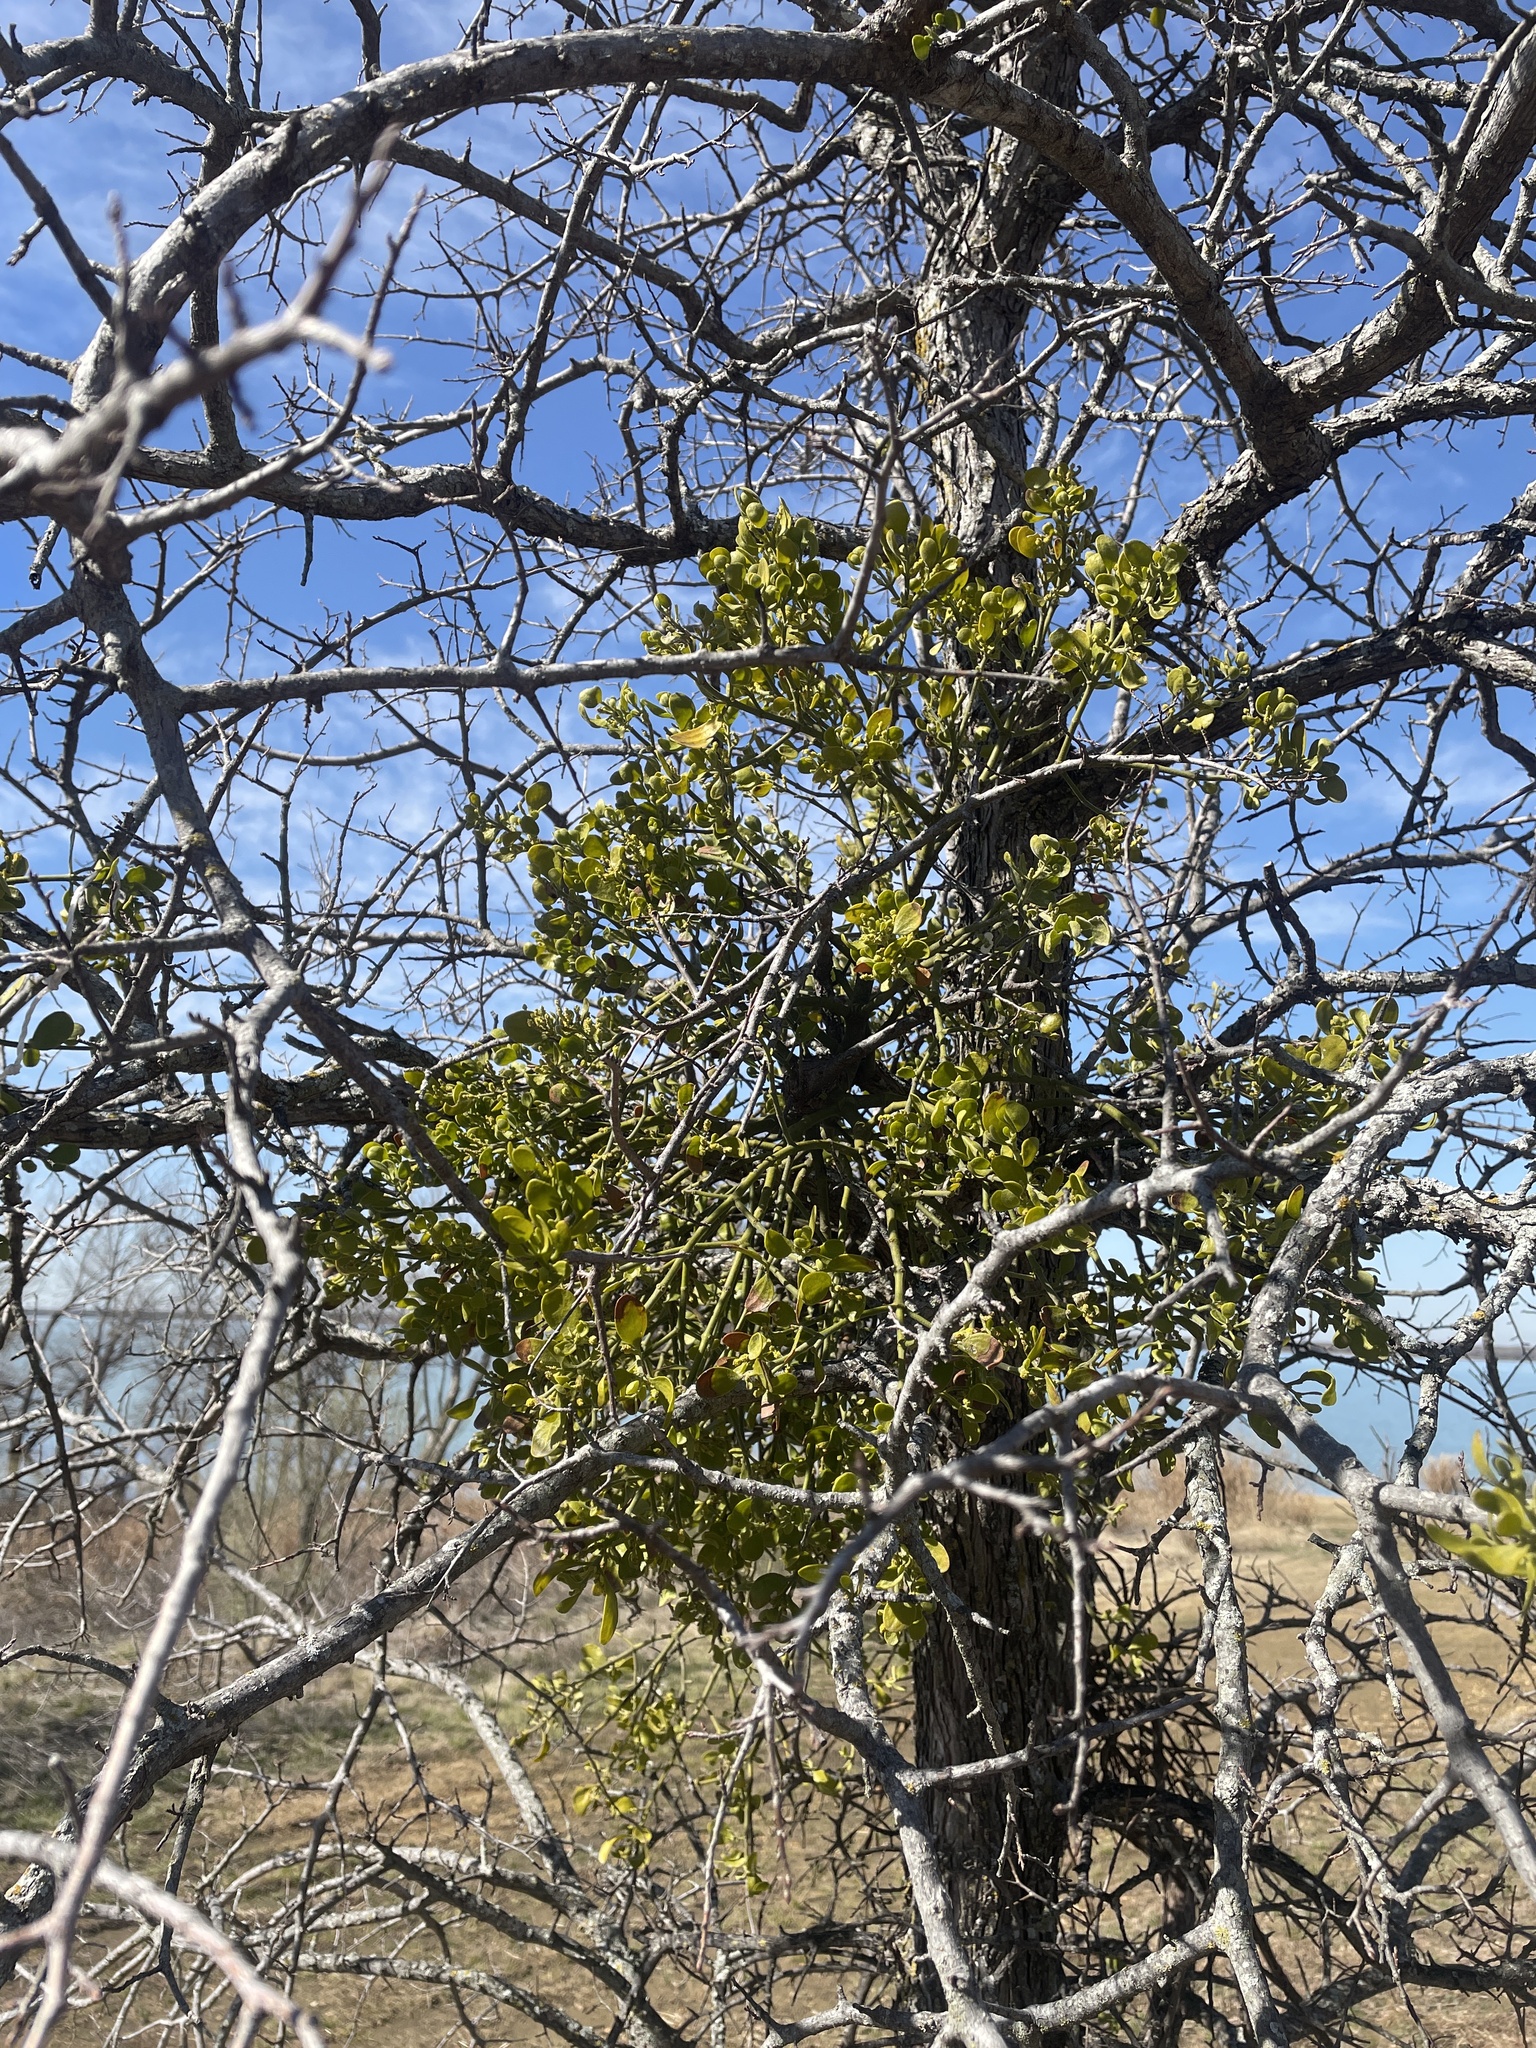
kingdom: Plantae
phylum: Tracheophyta
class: Magnoliopsida
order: Santalales
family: Viscaceae
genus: Phoradendron
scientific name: Phoradendron leucarpum
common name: Pacific mistletoe
